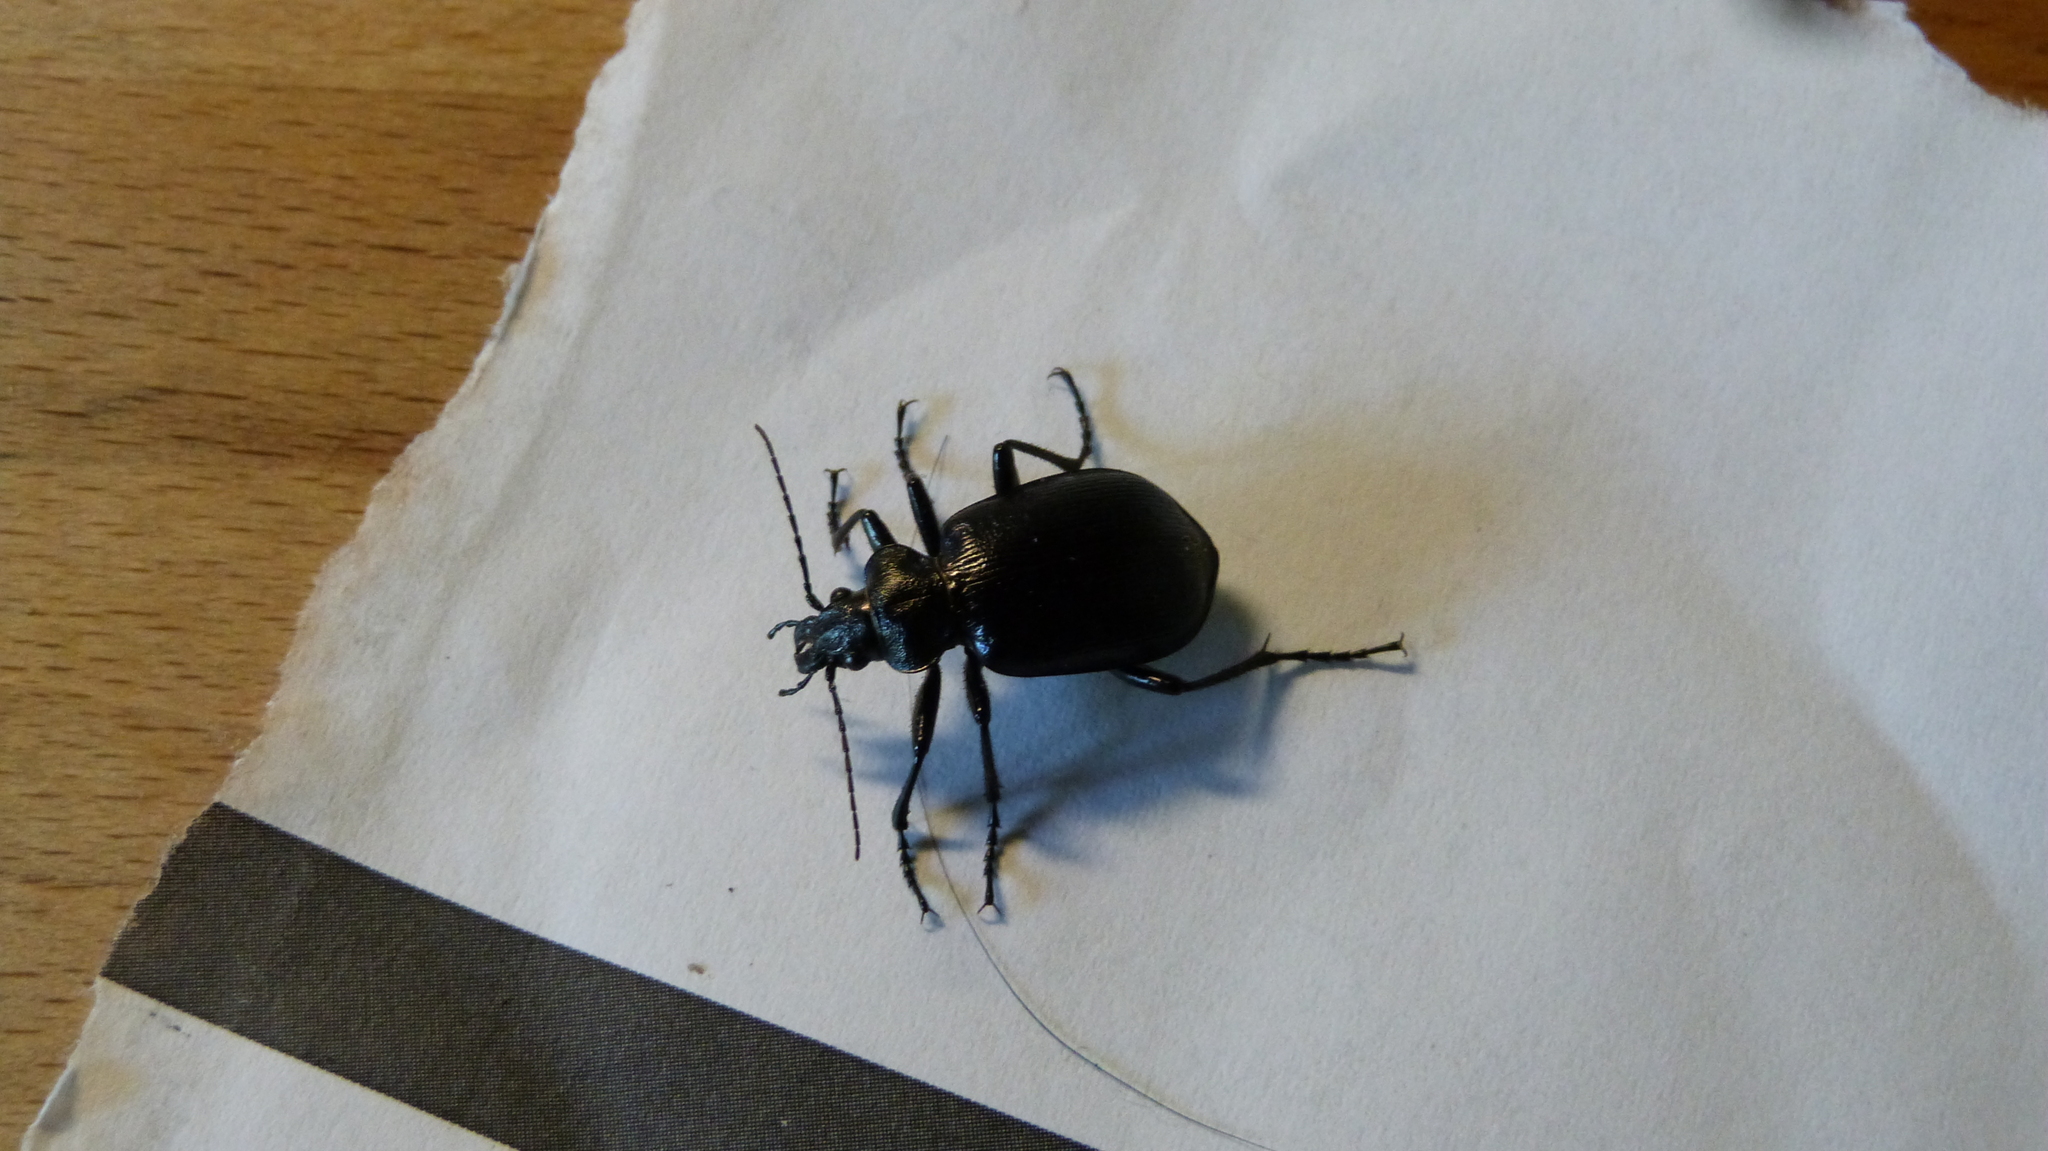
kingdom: Animalia
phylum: Arthropoda
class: Insecta
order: Coleoptera
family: Carabidae
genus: Calosoma
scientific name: Calosoma inquisitor
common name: Caterpillar-hunter
